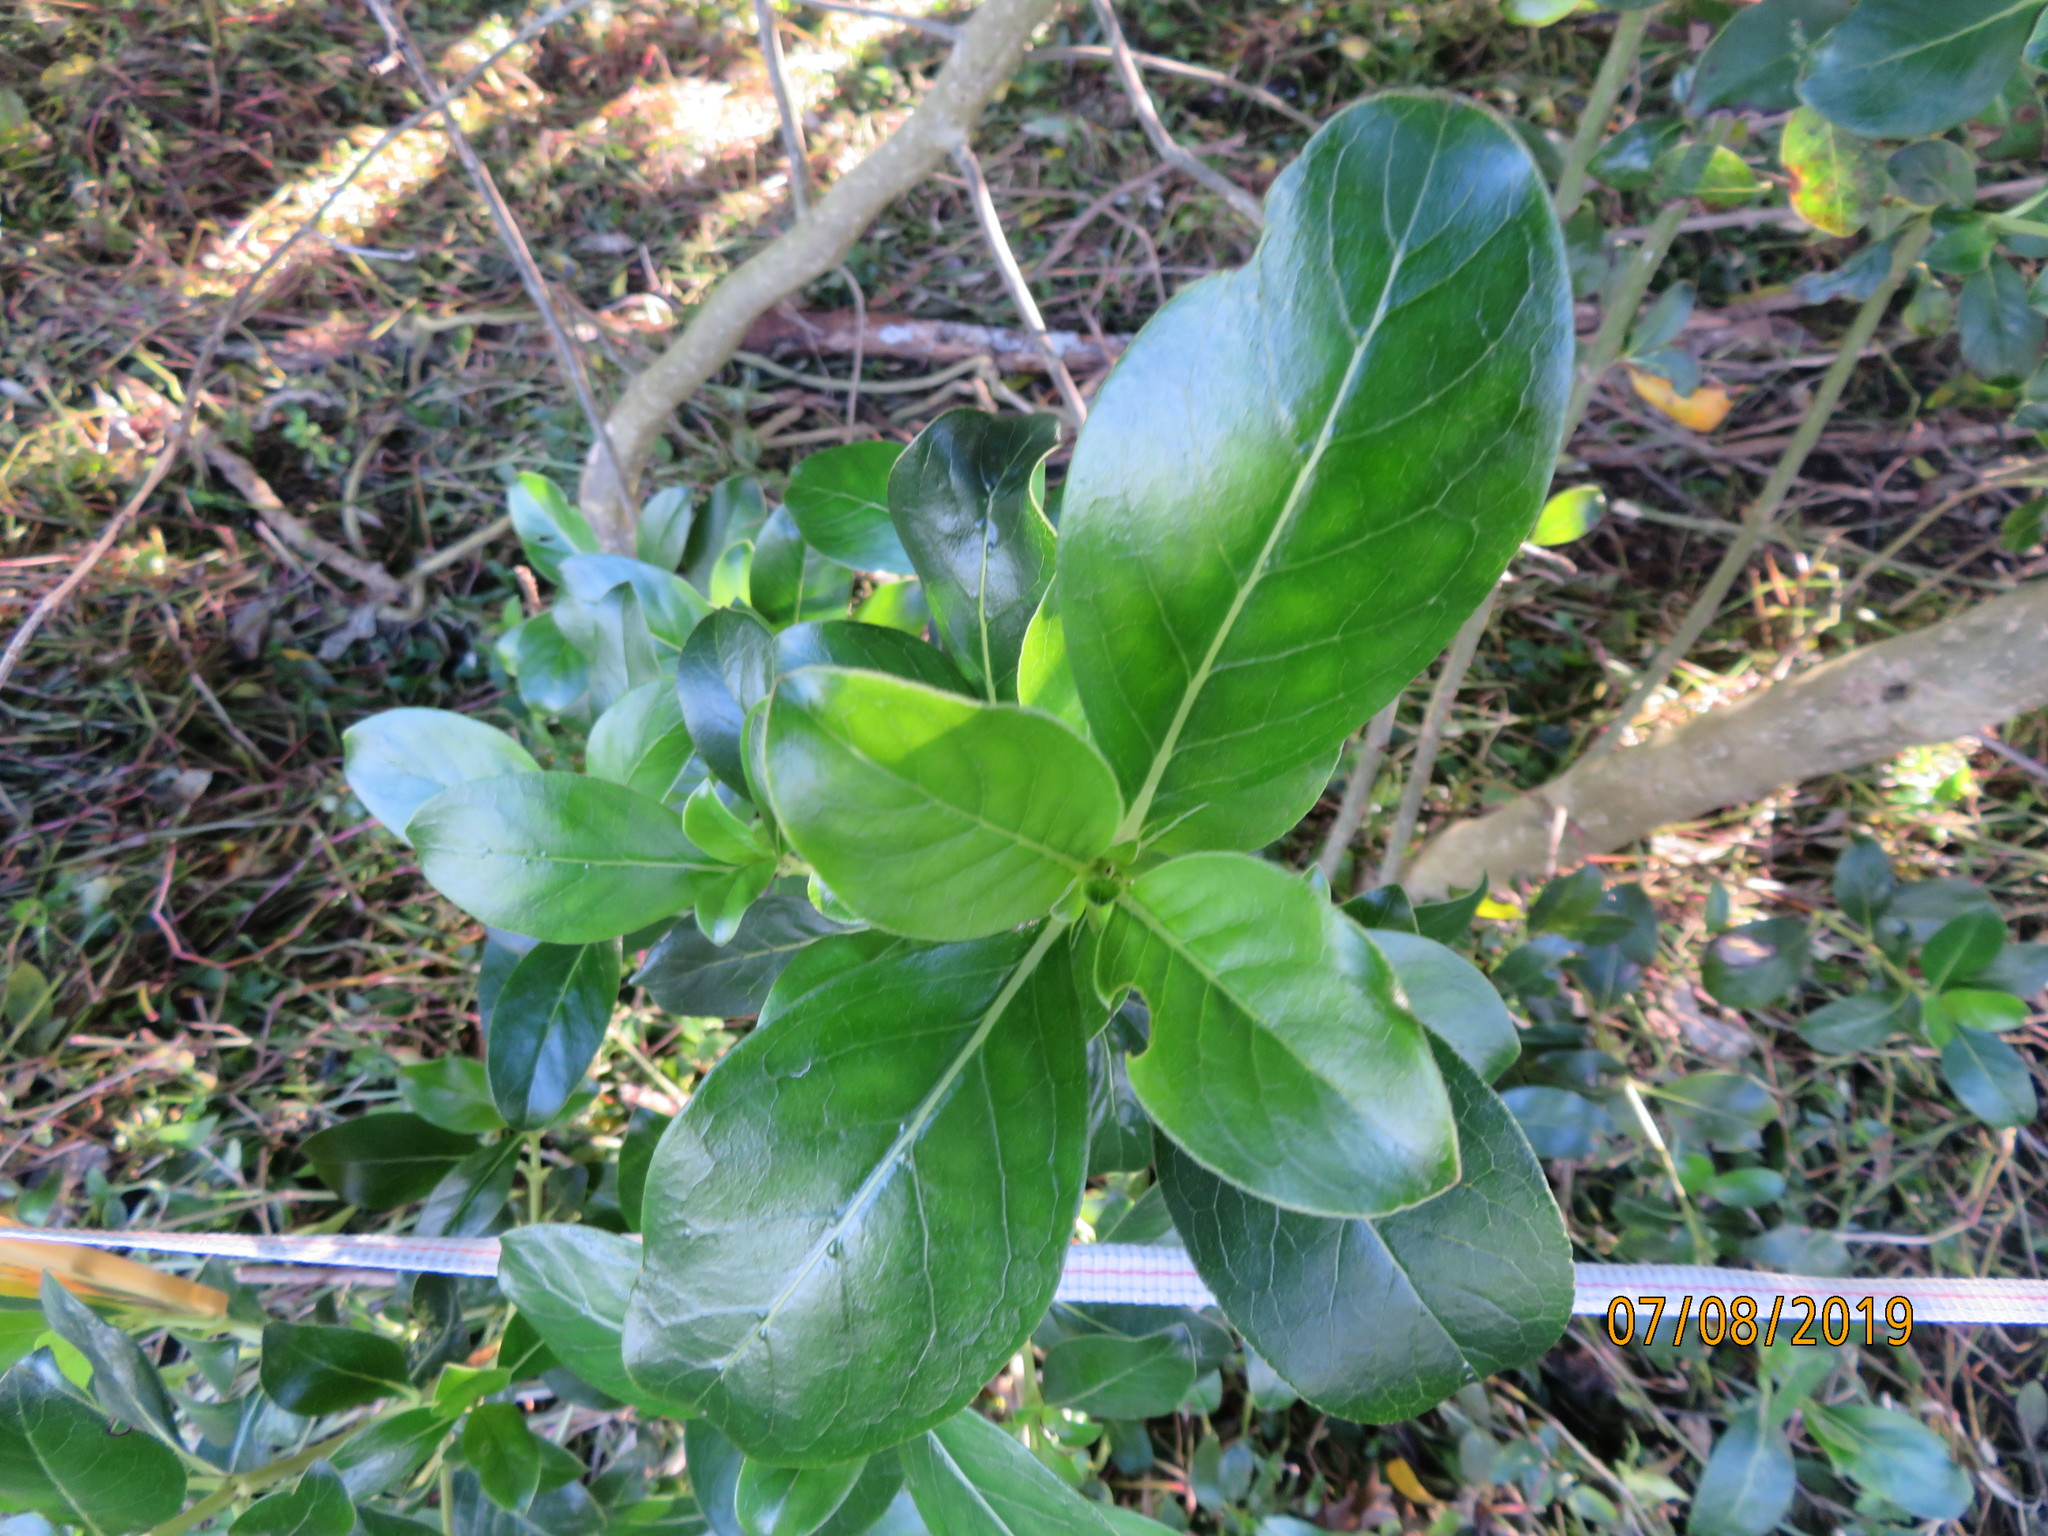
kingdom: Plantae
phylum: Tracheophyta
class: Magnoliopsida
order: Gentianales
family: Rubiaceae
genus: Coprosma
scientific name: Coprosma robusta
